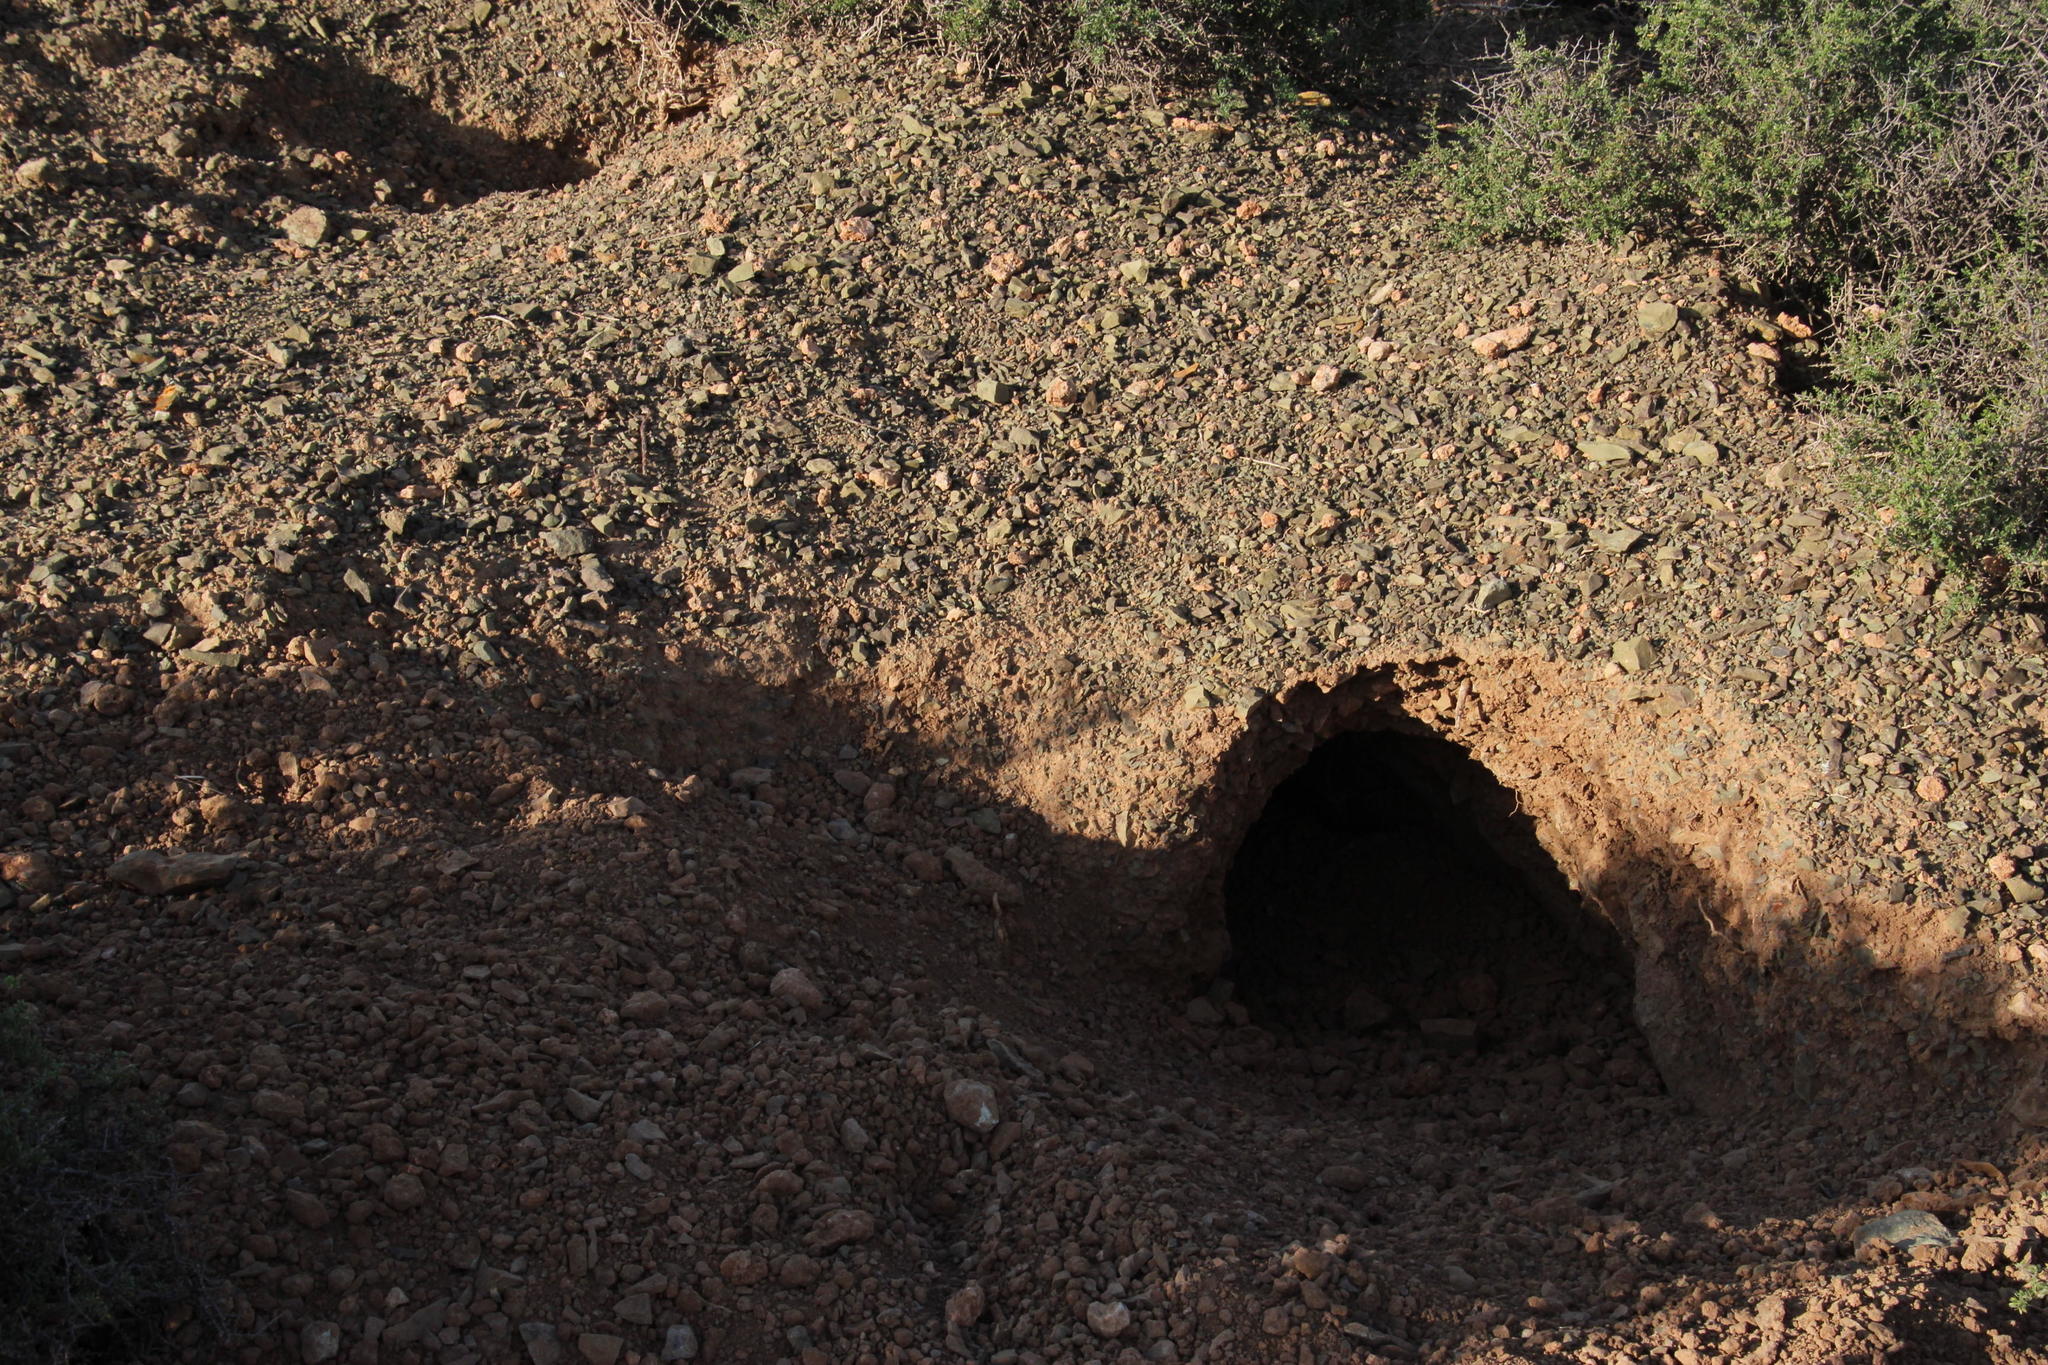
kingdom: Animalia
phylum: Chordata
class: Mammalia
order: Tubulidentata
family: Orycteropodidae
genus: Orycteropus
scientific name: Orycteropus afer
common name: Aardvark
